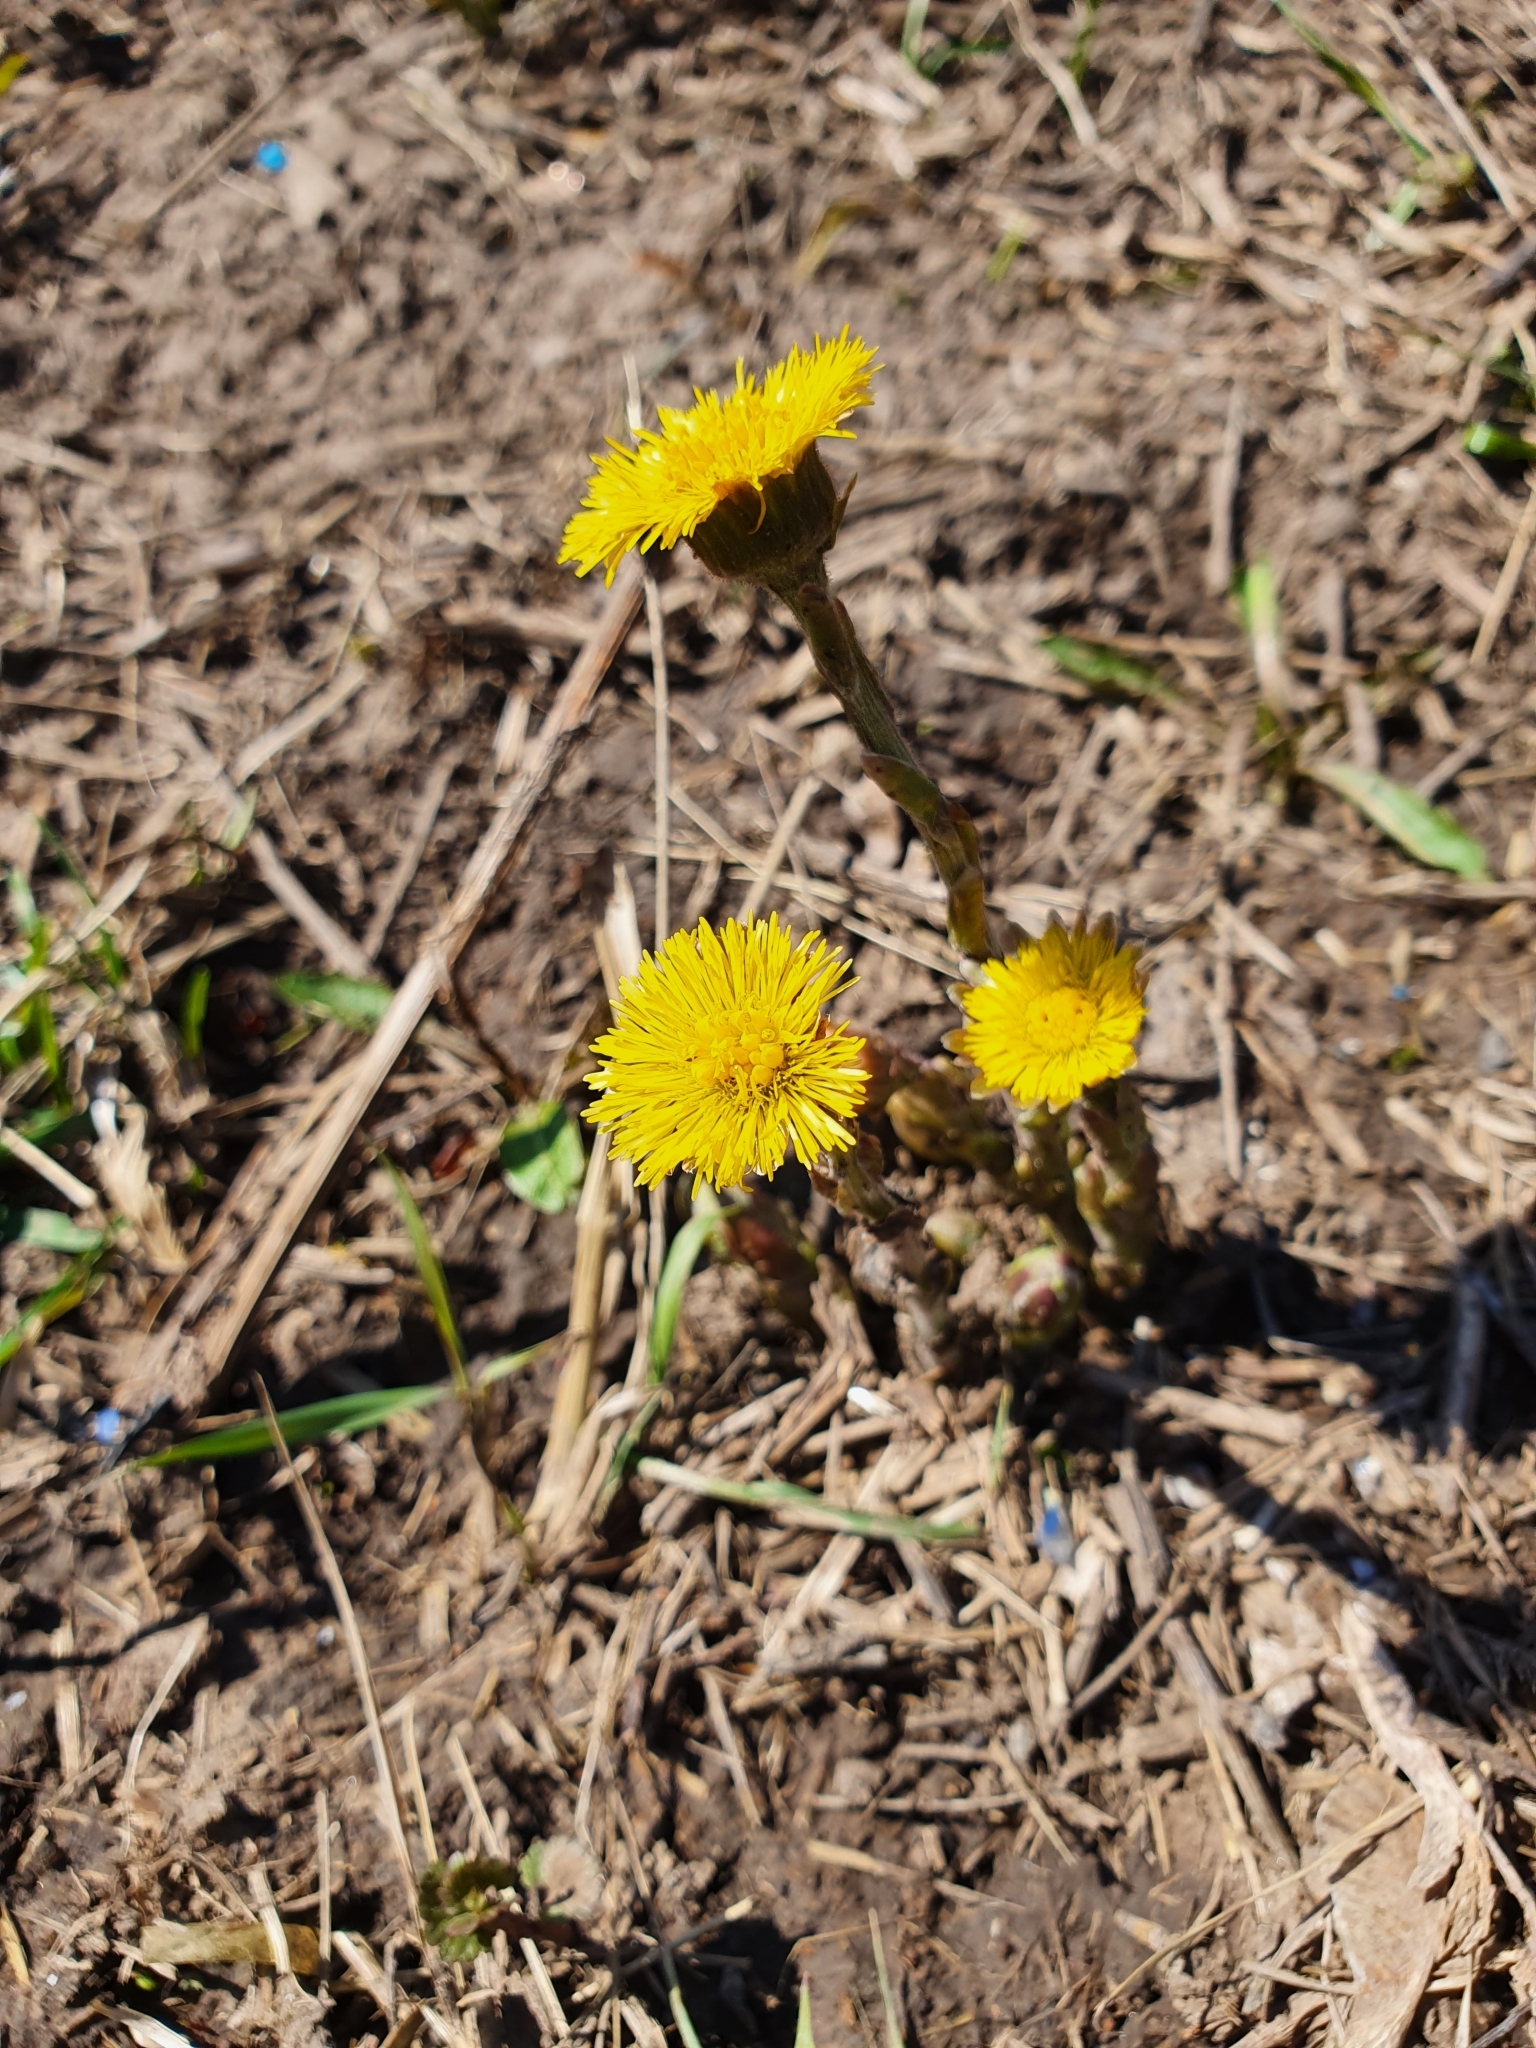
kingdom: Plantae
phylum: Tracheophyta
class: Magnoliopsida
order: Asterales
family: Asteraceae
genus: Tussilago
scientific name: Tussilago farfara
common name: Coltsfoot
